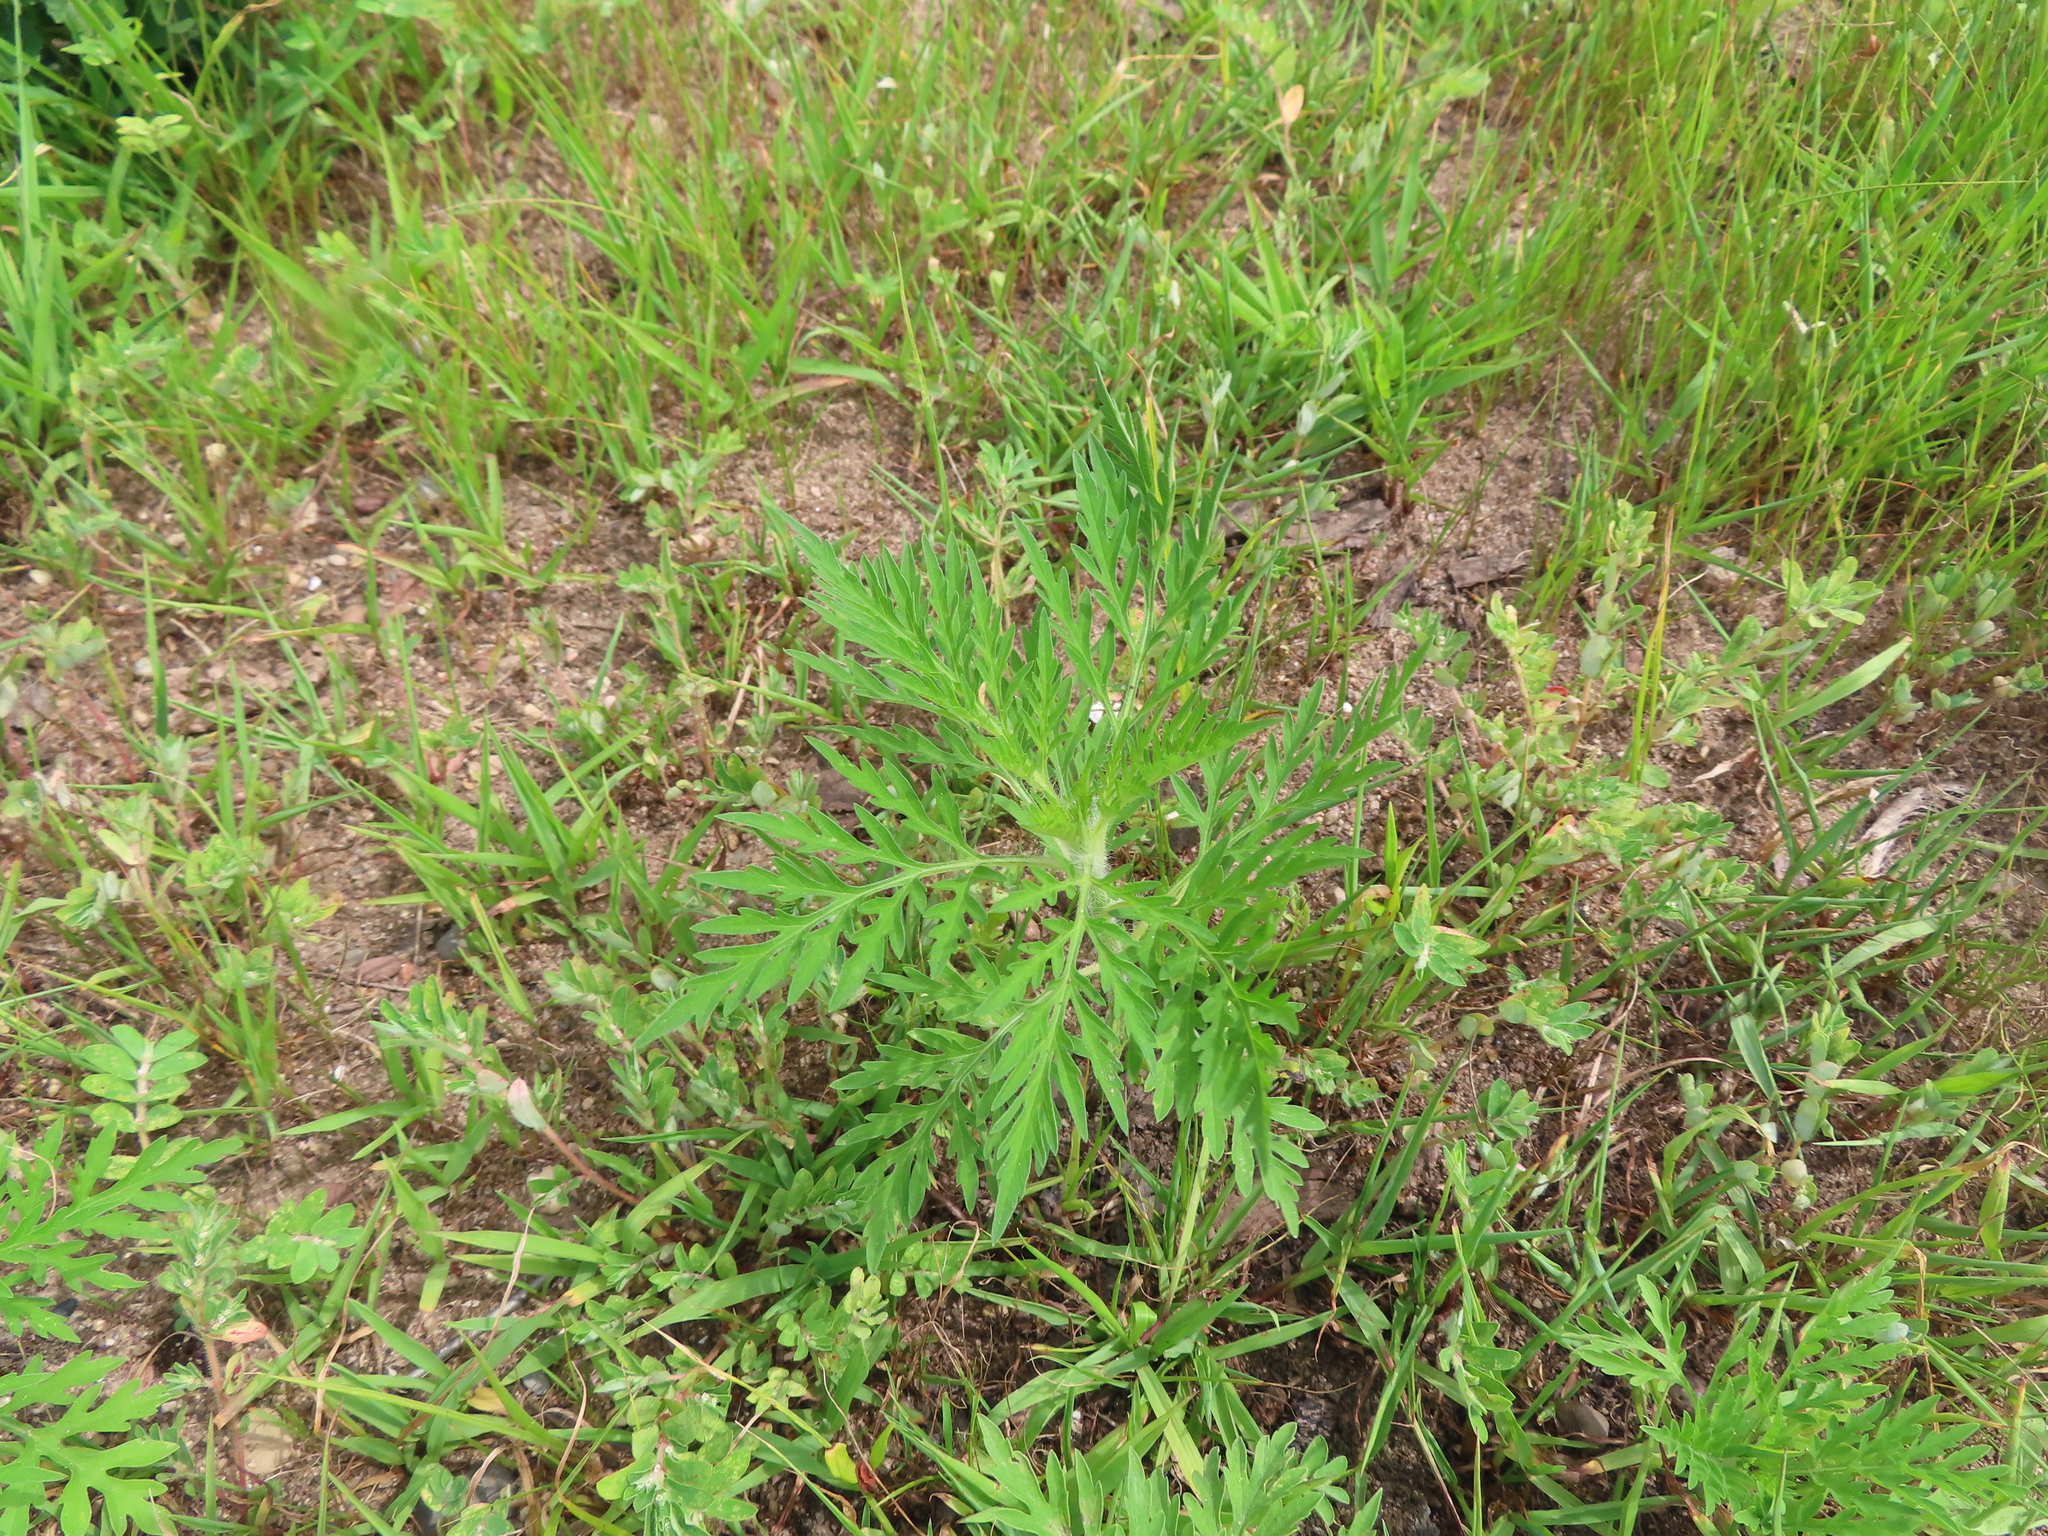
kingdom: Plantae
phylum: Tracheophyta
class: Magnoliopsida
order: Asterales
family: Asteraceae
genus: Ambrosia
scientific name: Ambrosia artemisiifolia
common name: Annual ragweed
